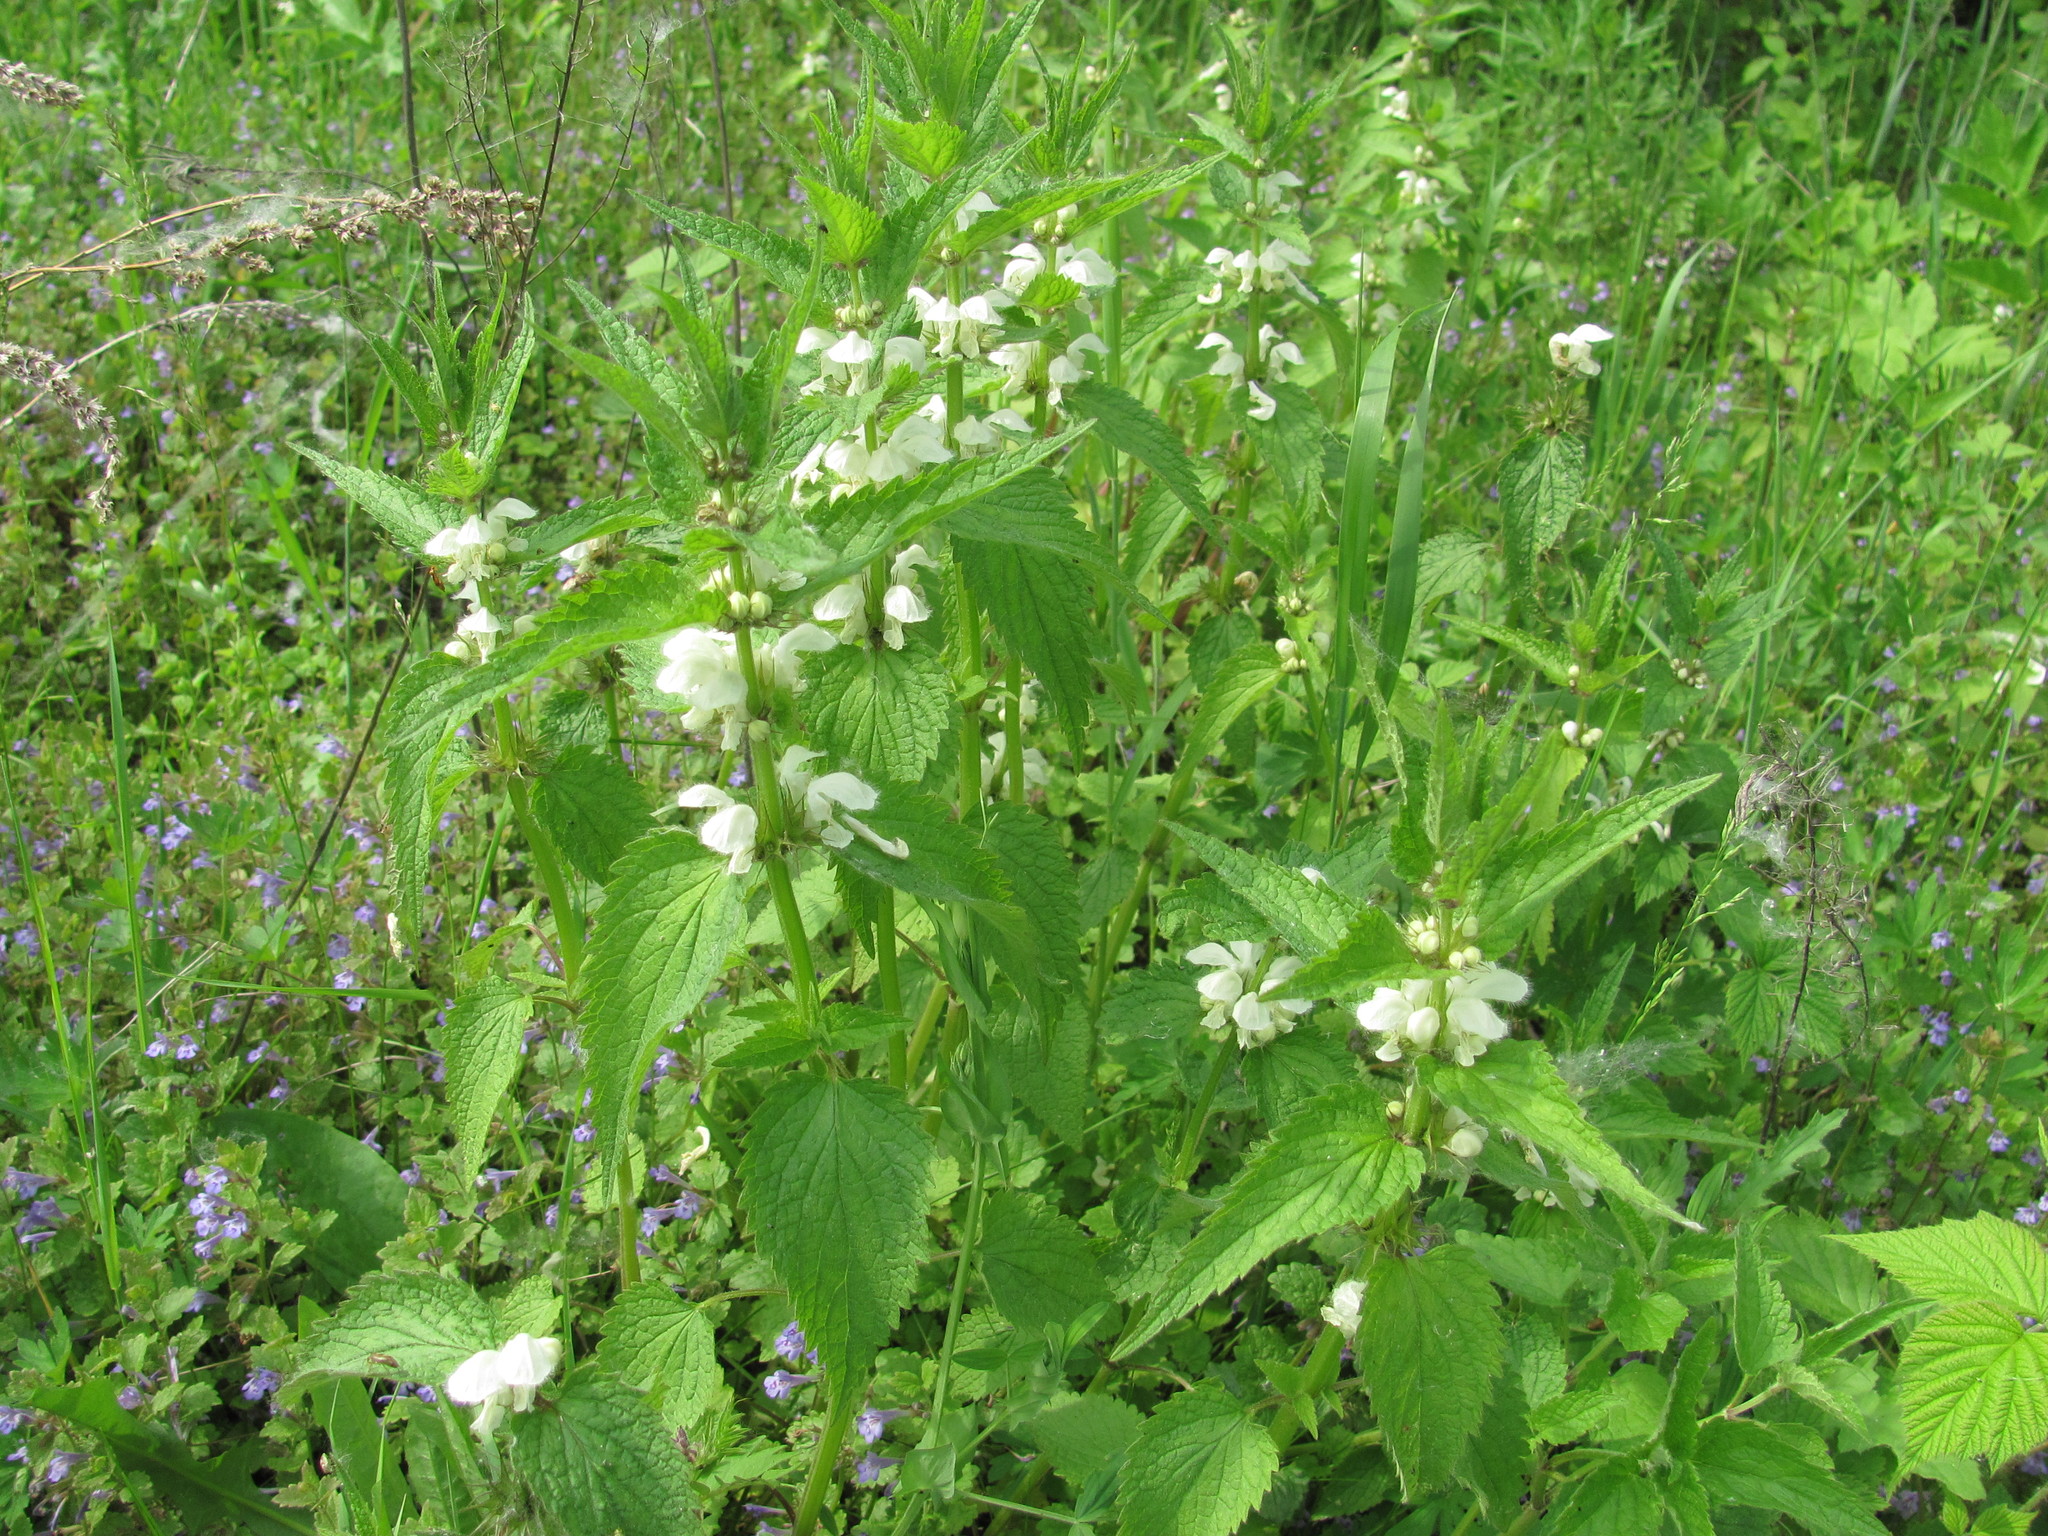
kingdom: Plantae
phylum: Tracheophyta
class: Magnoliopsida
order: Lamiales
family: Lamiaceae
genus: Lamium
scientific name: Lamium album
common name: White dead-nettle
